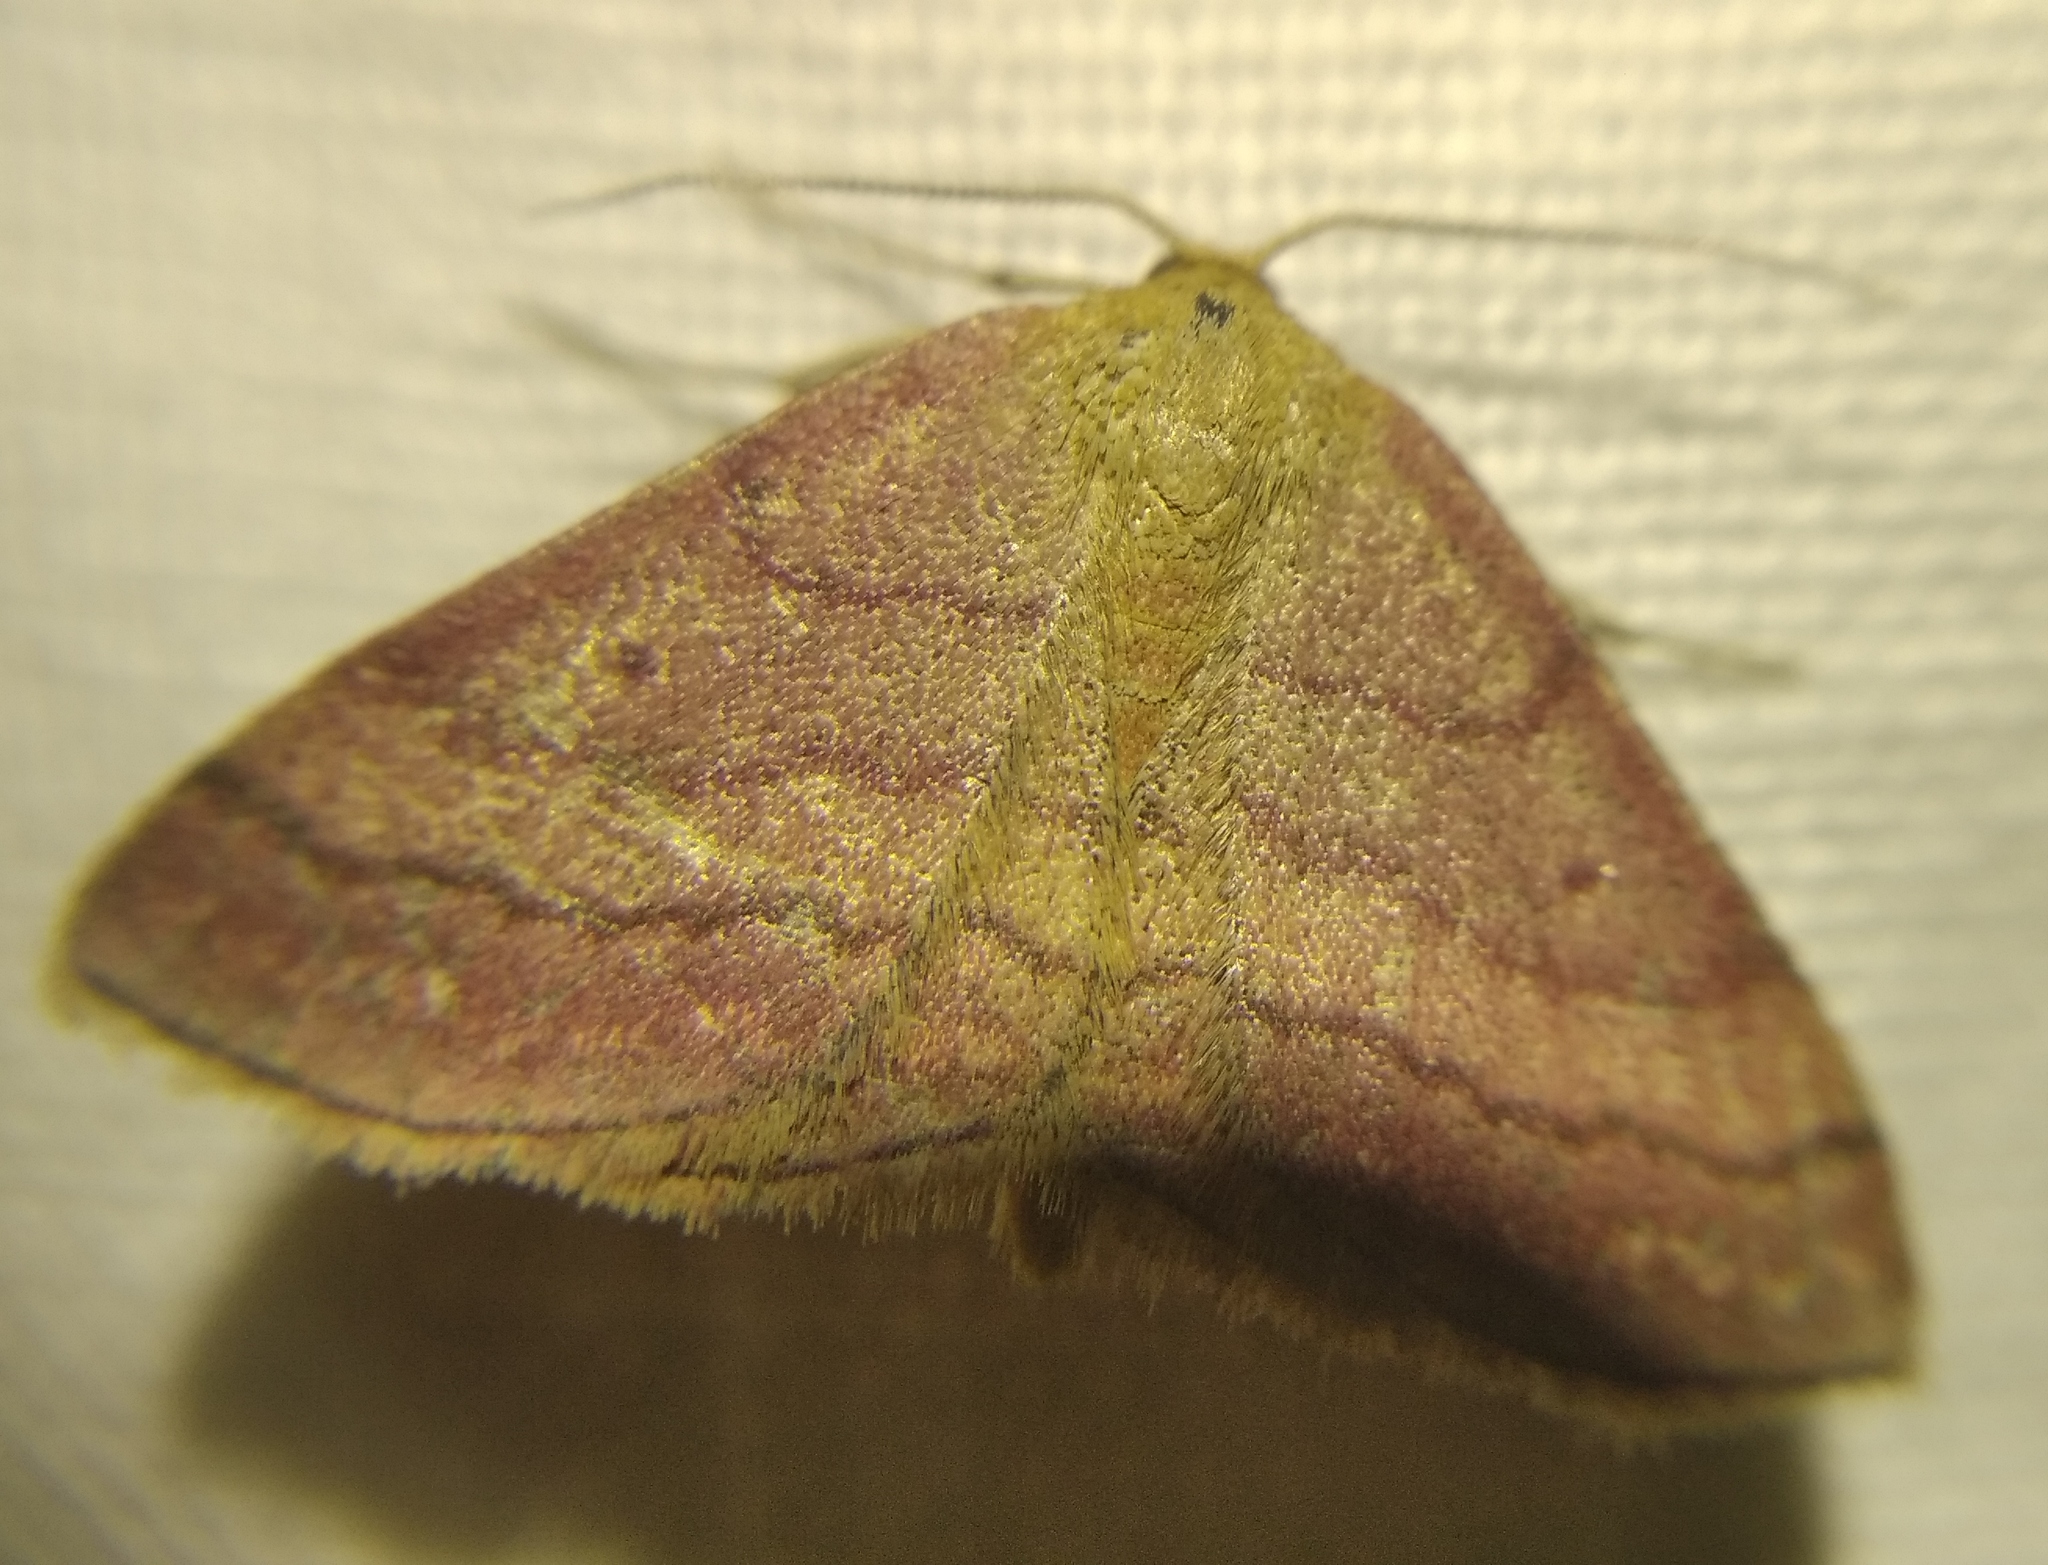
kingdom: Animalia
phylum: Arthropoda
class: Insecta
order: Lepidoptera
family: Geometridae
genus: Scopula
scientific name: Scopula rubiginata
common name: Tawny wave
